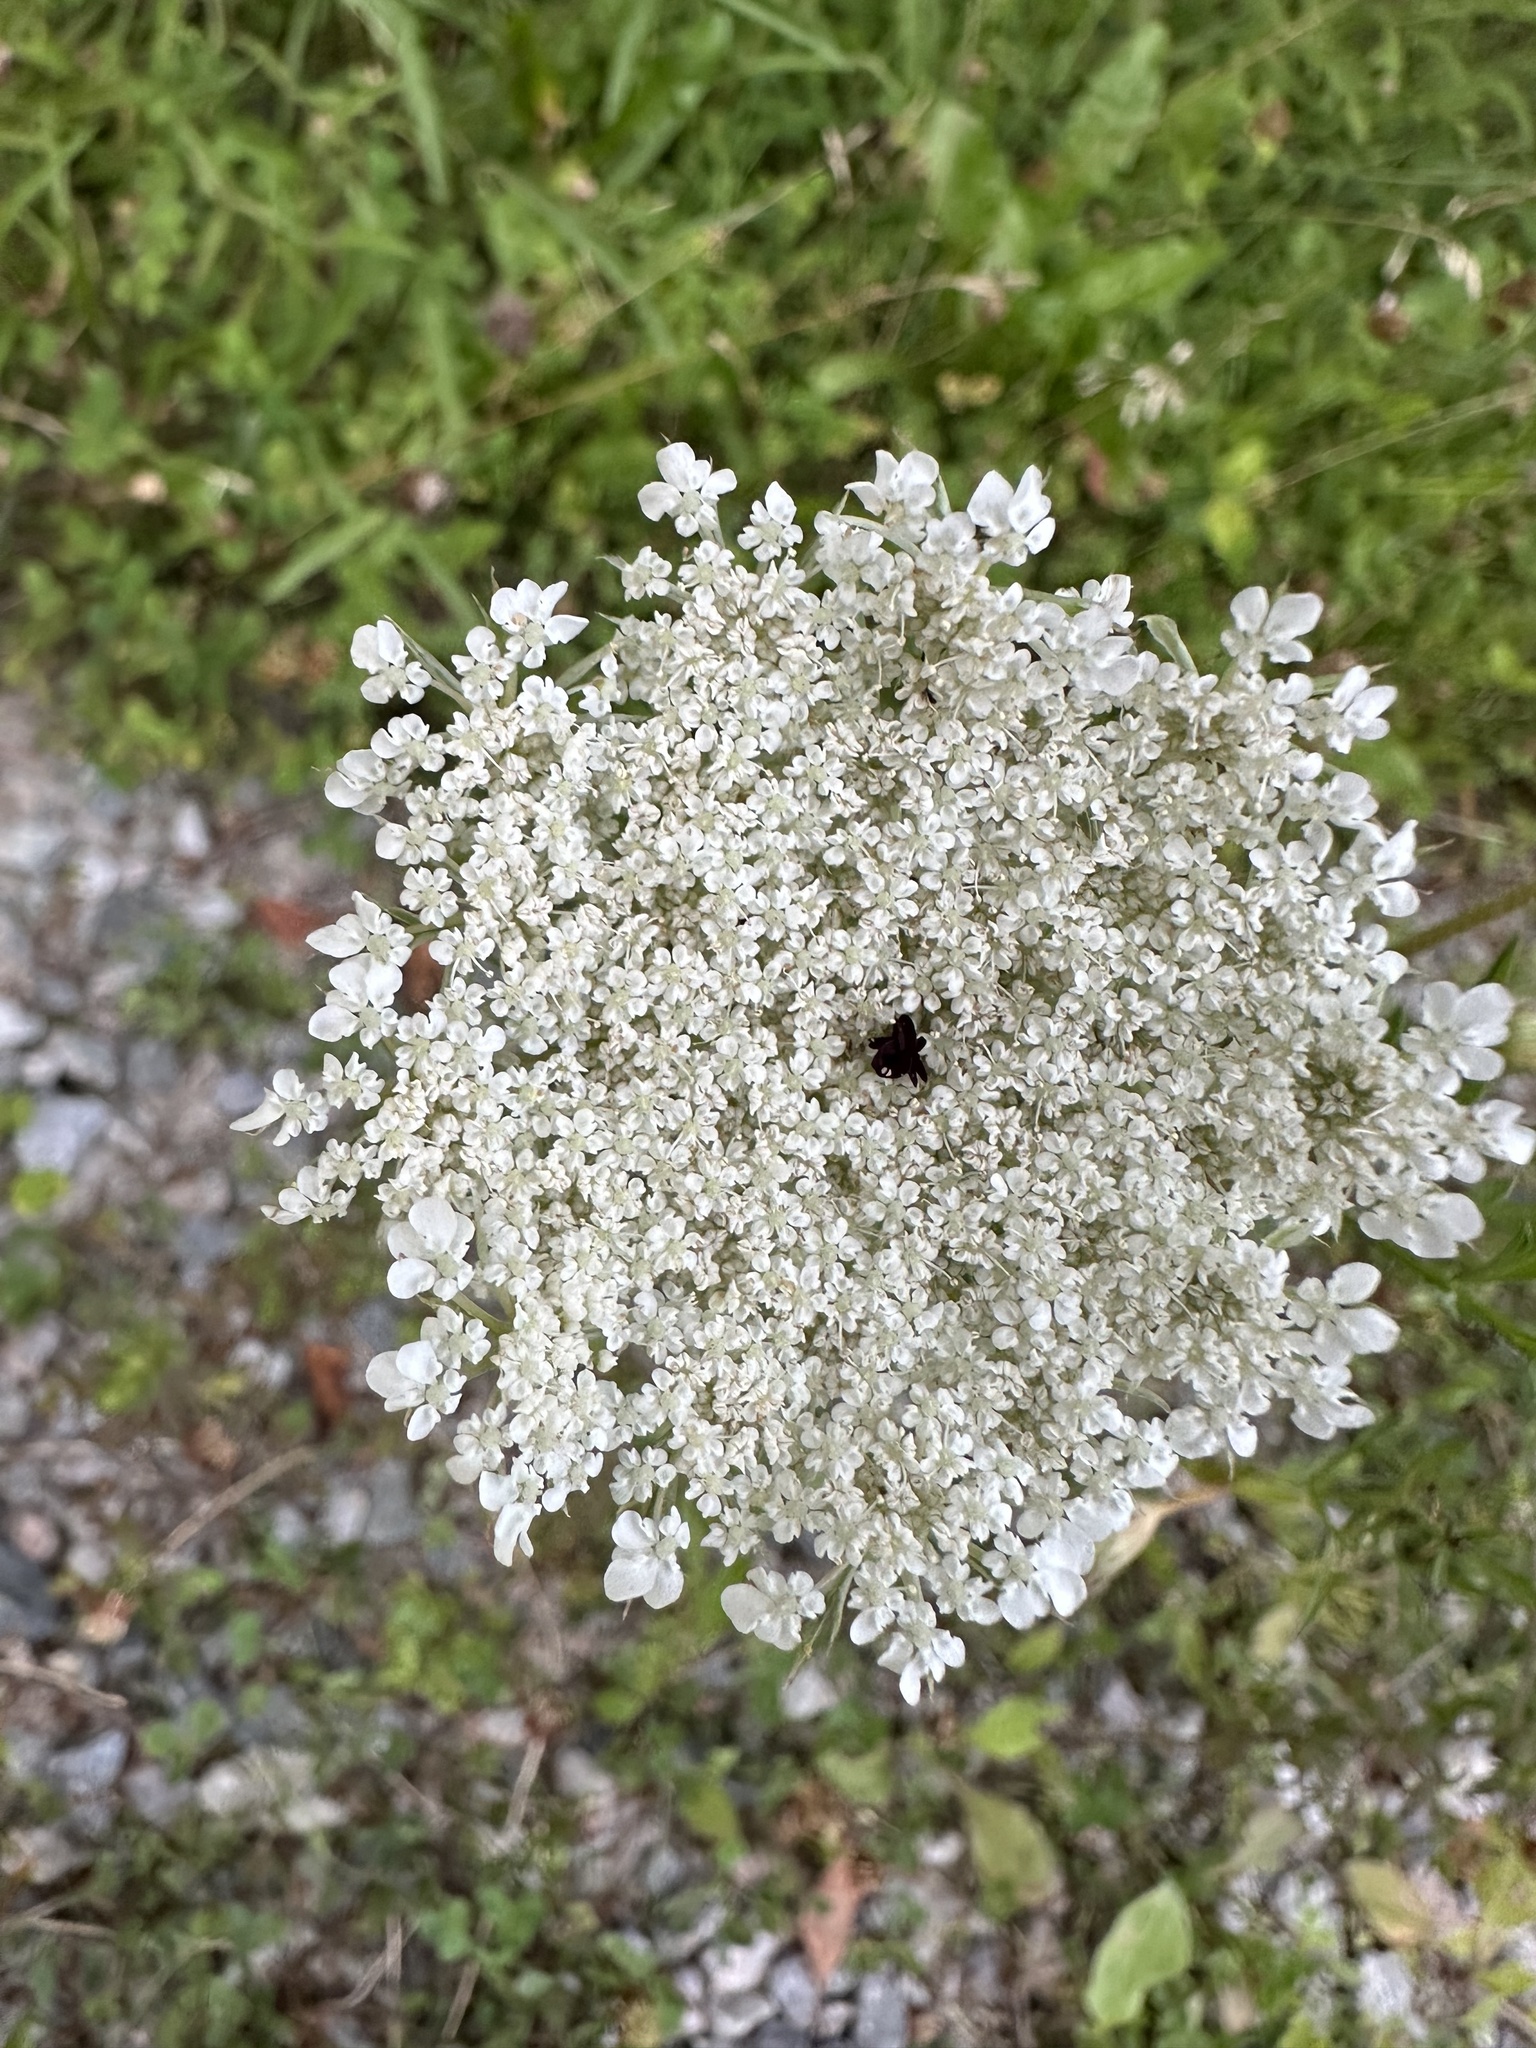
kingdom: Plantae
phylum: Tracheophyta
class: Magnoliopsida
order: Apiales
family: Apiaceae
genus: Daucus
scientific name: Daucus carota
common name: Wild carrot
